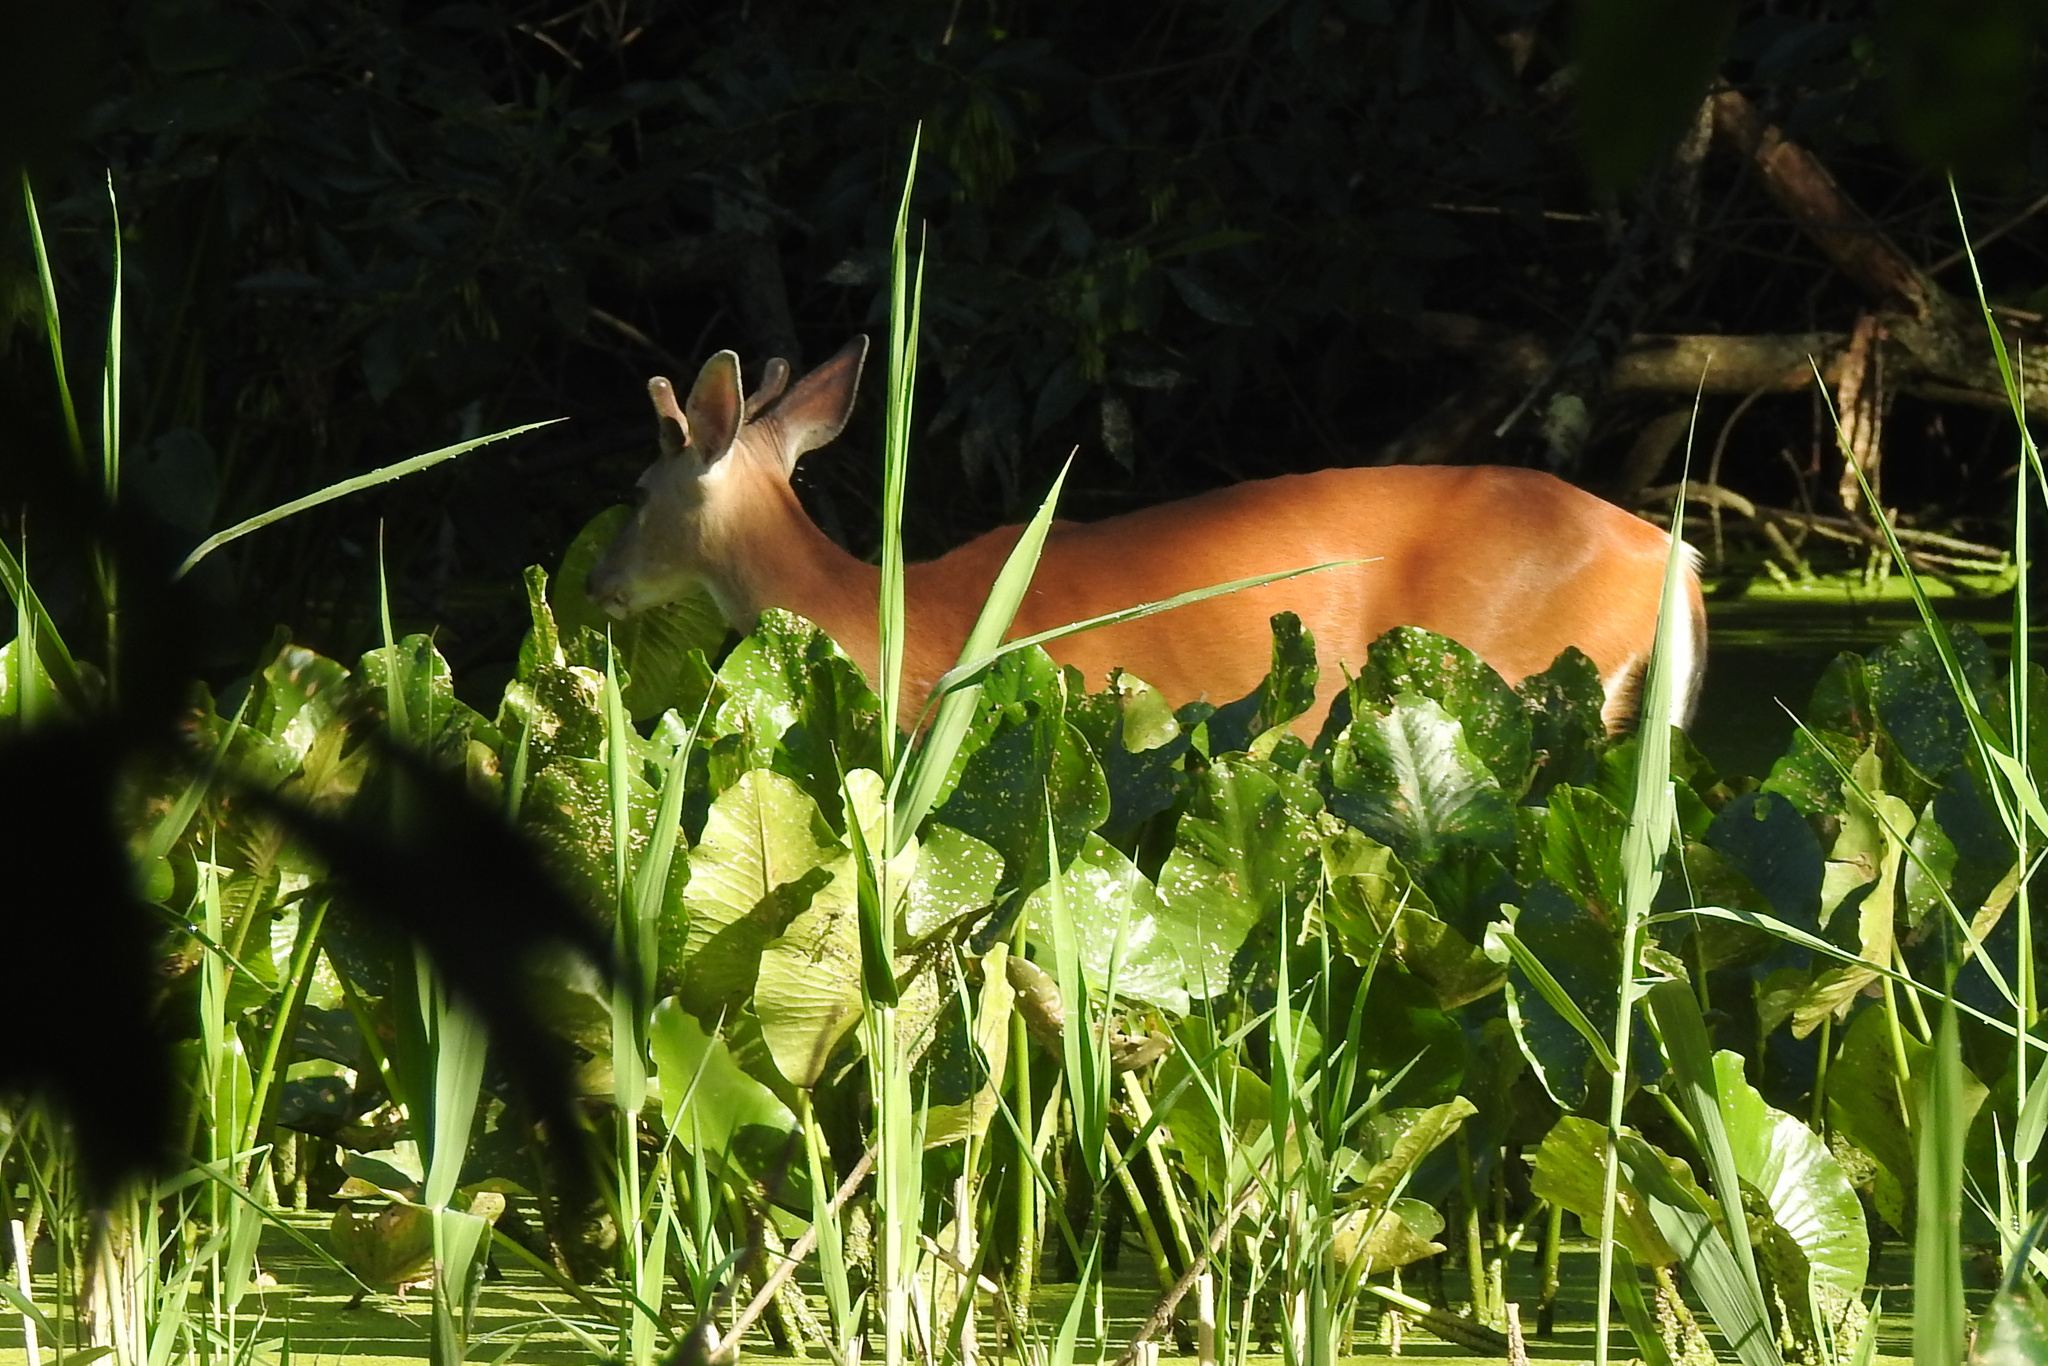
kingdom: Animalia
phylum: Chordata
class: Mammalia
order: Artiodactyla
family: Cervidae
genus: Odocoileus
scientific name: Odocoileus virginianus
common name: White-tailed deer
